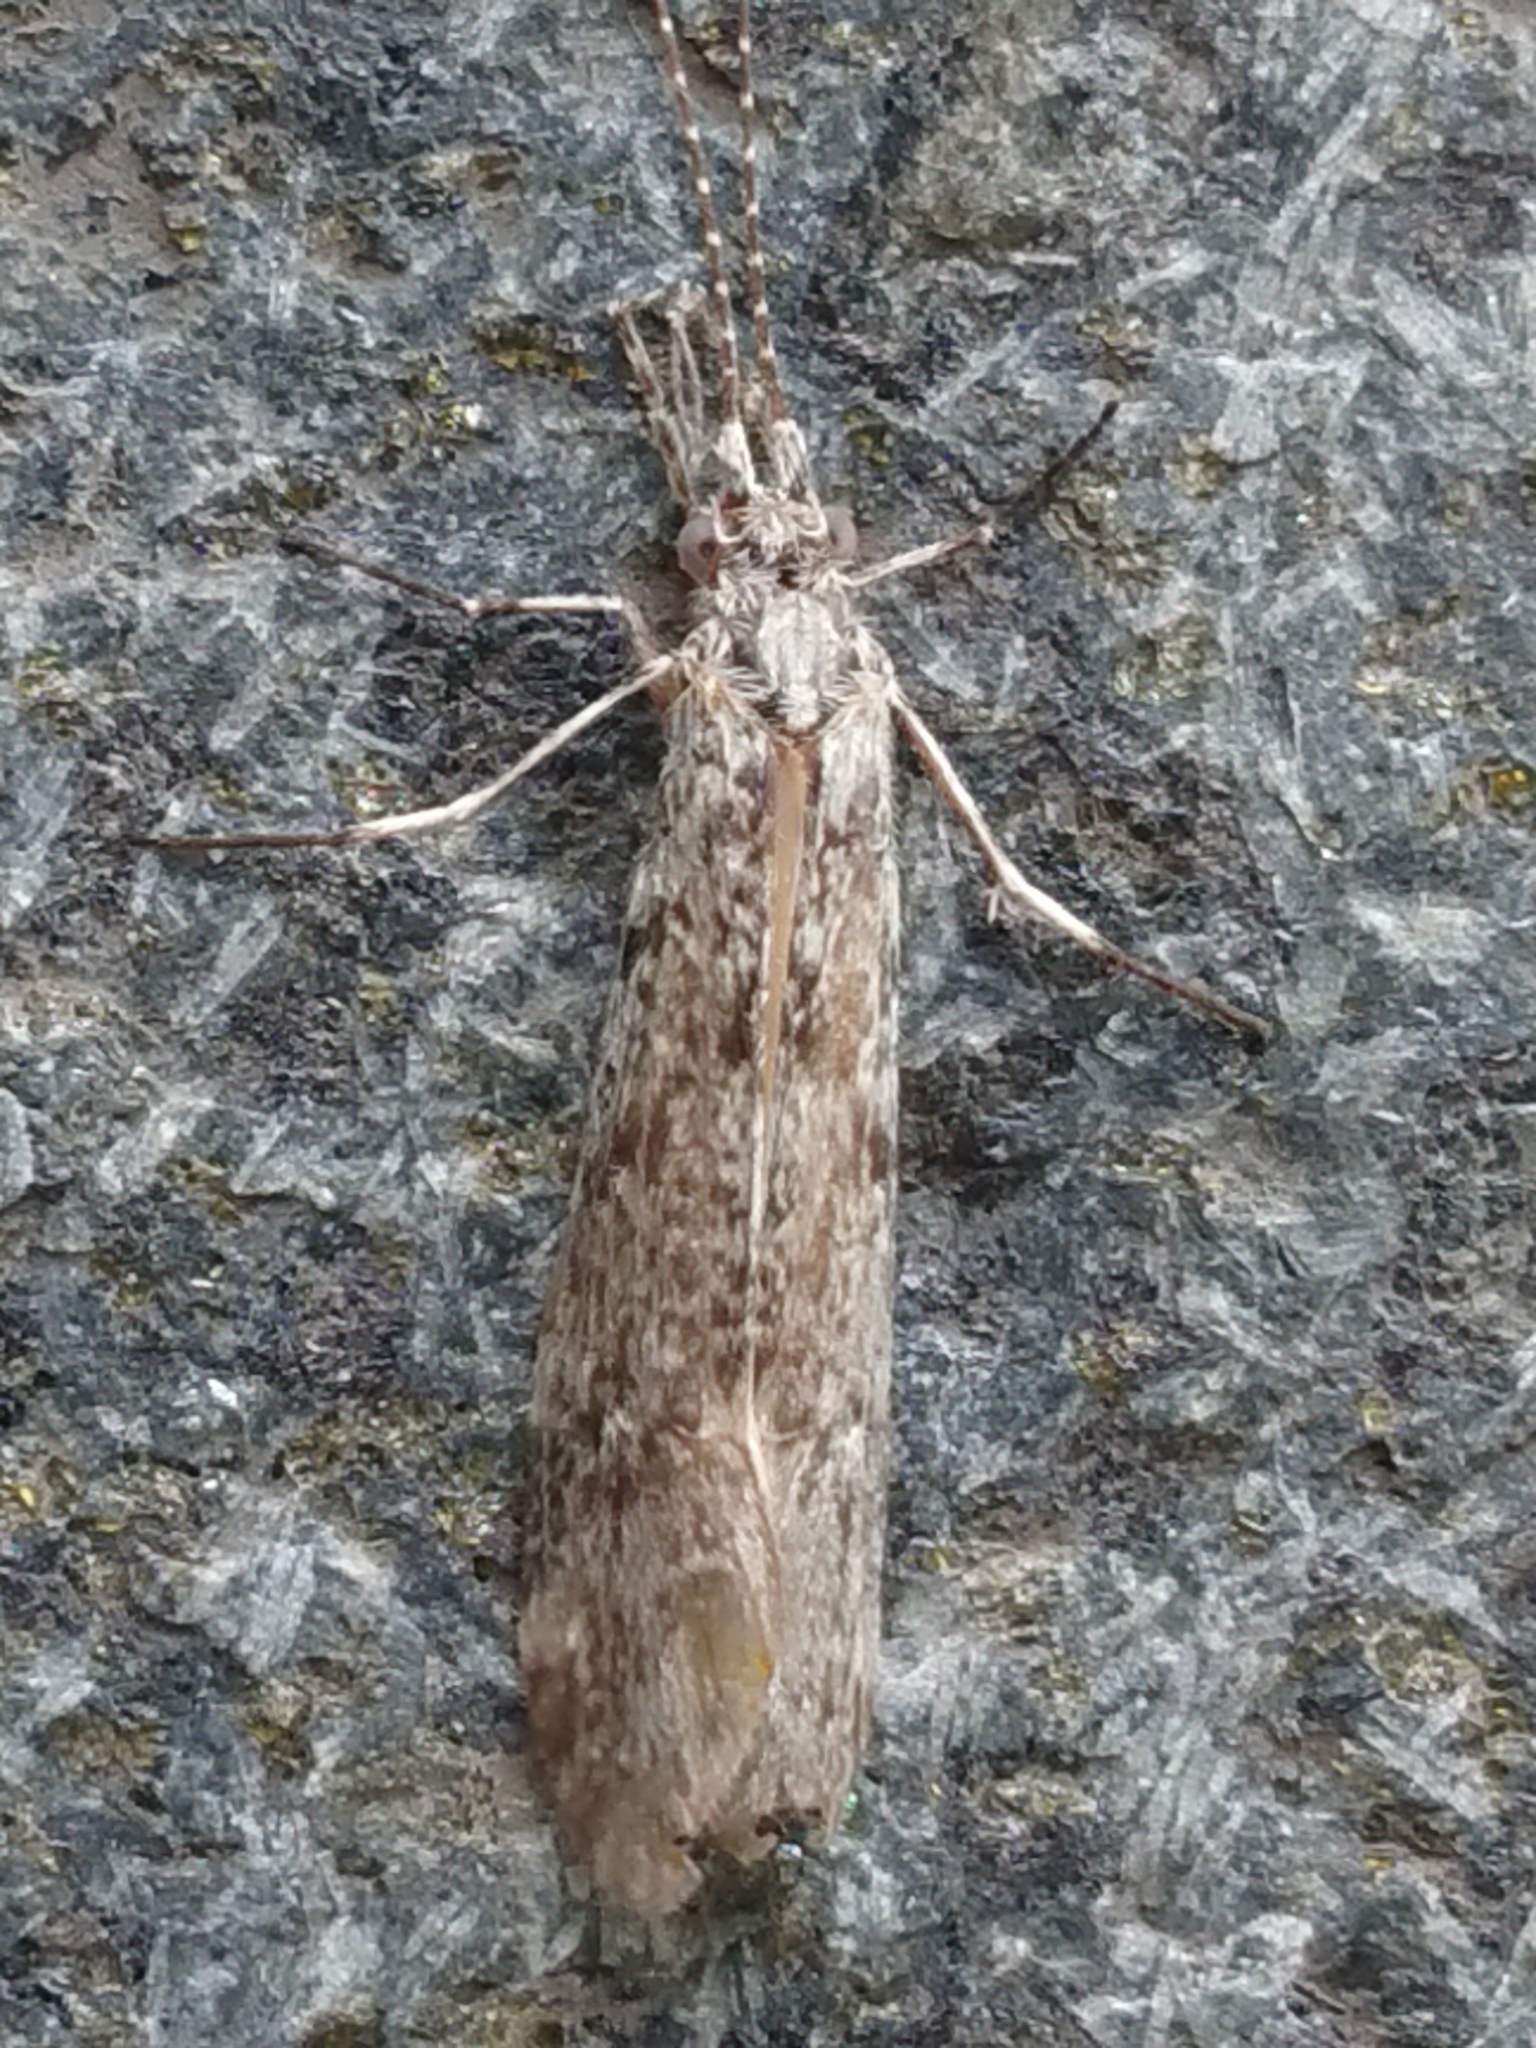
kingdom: Animalia
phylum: Arthropoda
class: Insecta
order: Trichoptera
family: Leptoceridae
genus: Triplectides
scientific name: Triplectides cephalotes
